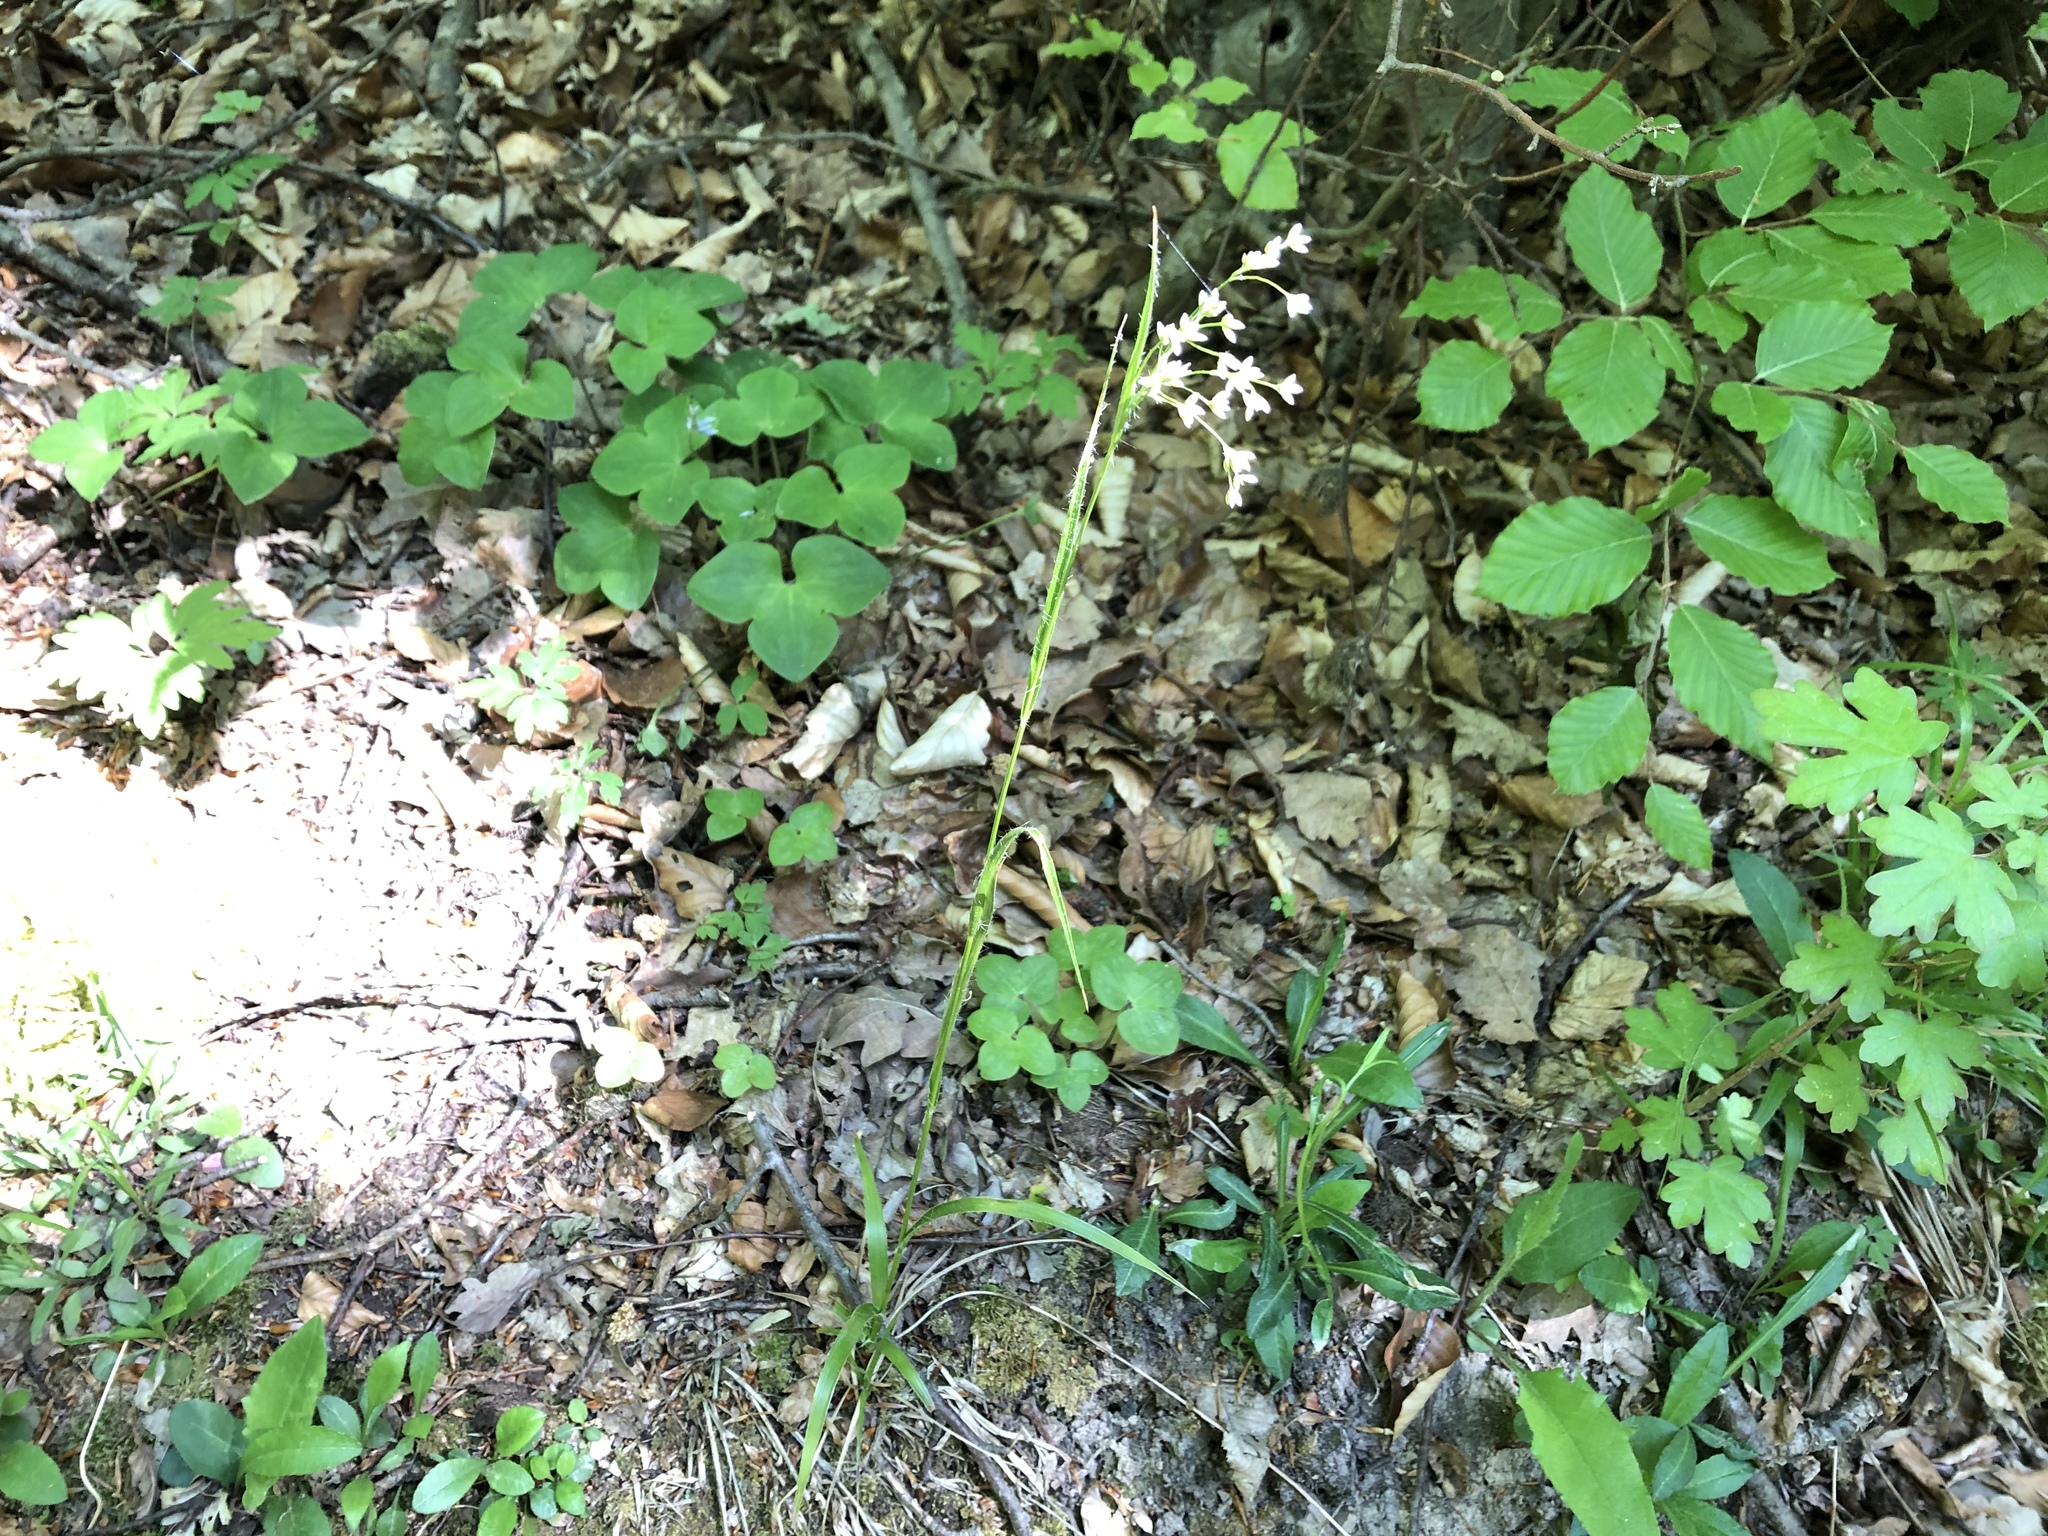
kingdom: Plantae
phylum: Tracheophyta
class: Liliopsida
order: Poales
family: Juncaceae
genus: Luzula
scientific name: Luzula luzuloides
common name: White wood-rush
